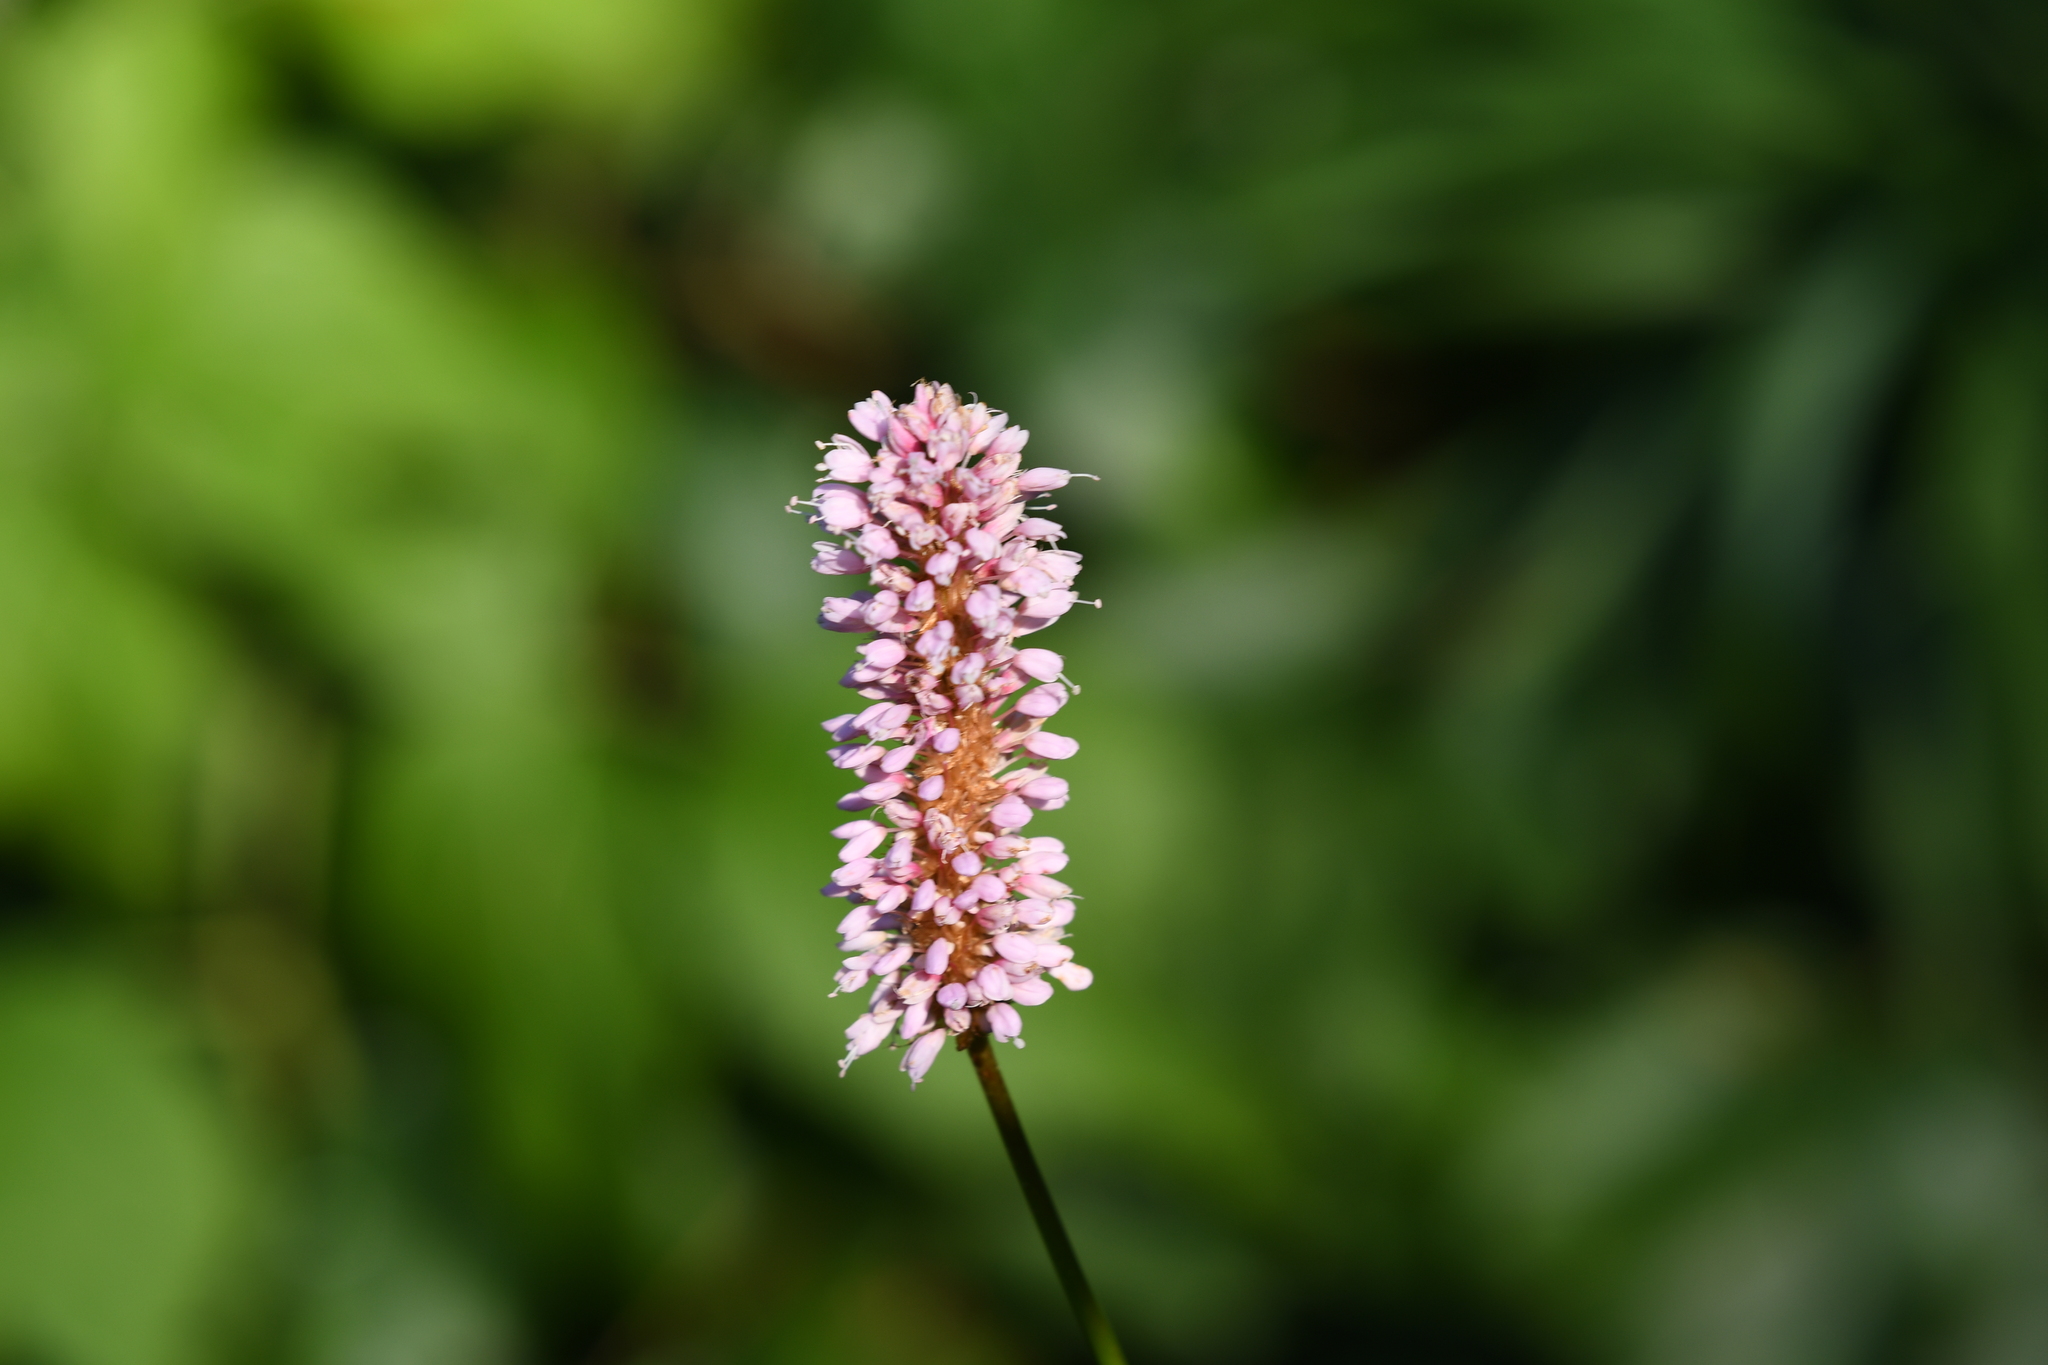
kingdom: Plantae
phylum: Tracheophyta
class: Magnoliopsida
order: Caryophyllales
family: Polygonaceae
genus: Bistorta
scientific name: Bistorta officinalis
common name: Common bistort
